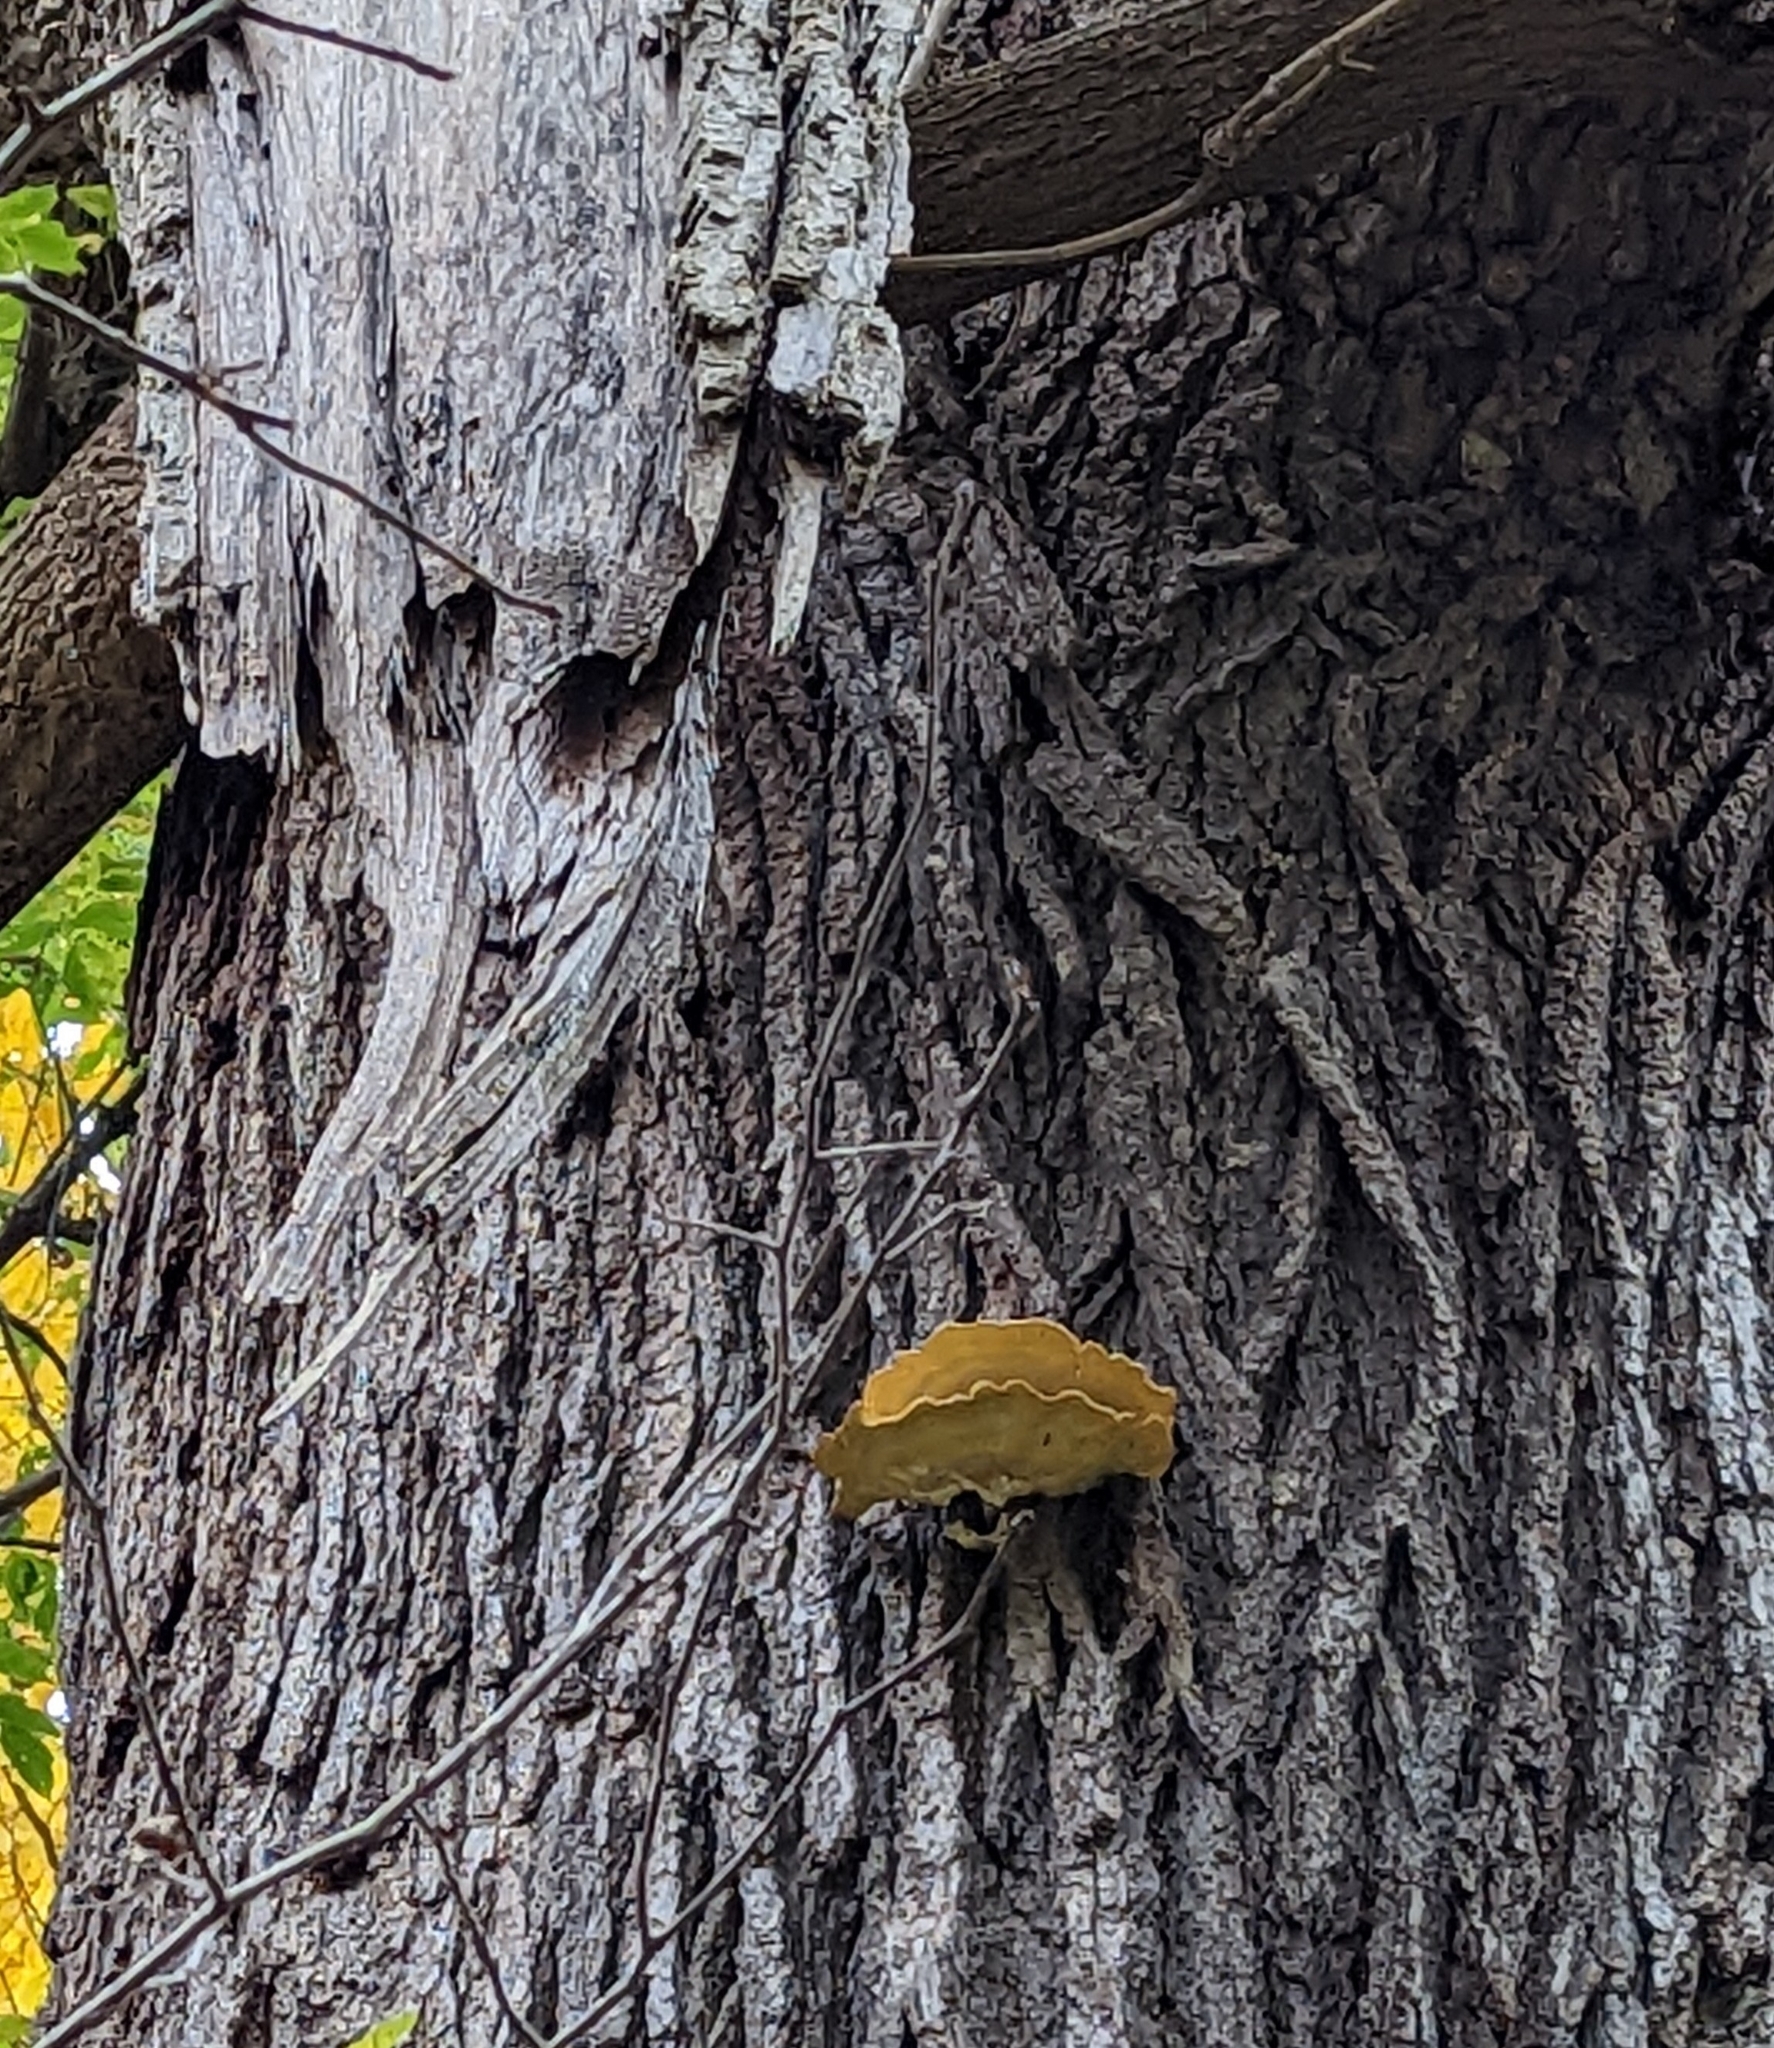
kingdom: Fungi
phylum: Basidiomycota
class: Agaricomycetes
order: Polyporales
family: Laetiporaceae
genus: Laetiporus
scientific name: Laetiporus sulphureus
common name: Chicken of the woods
